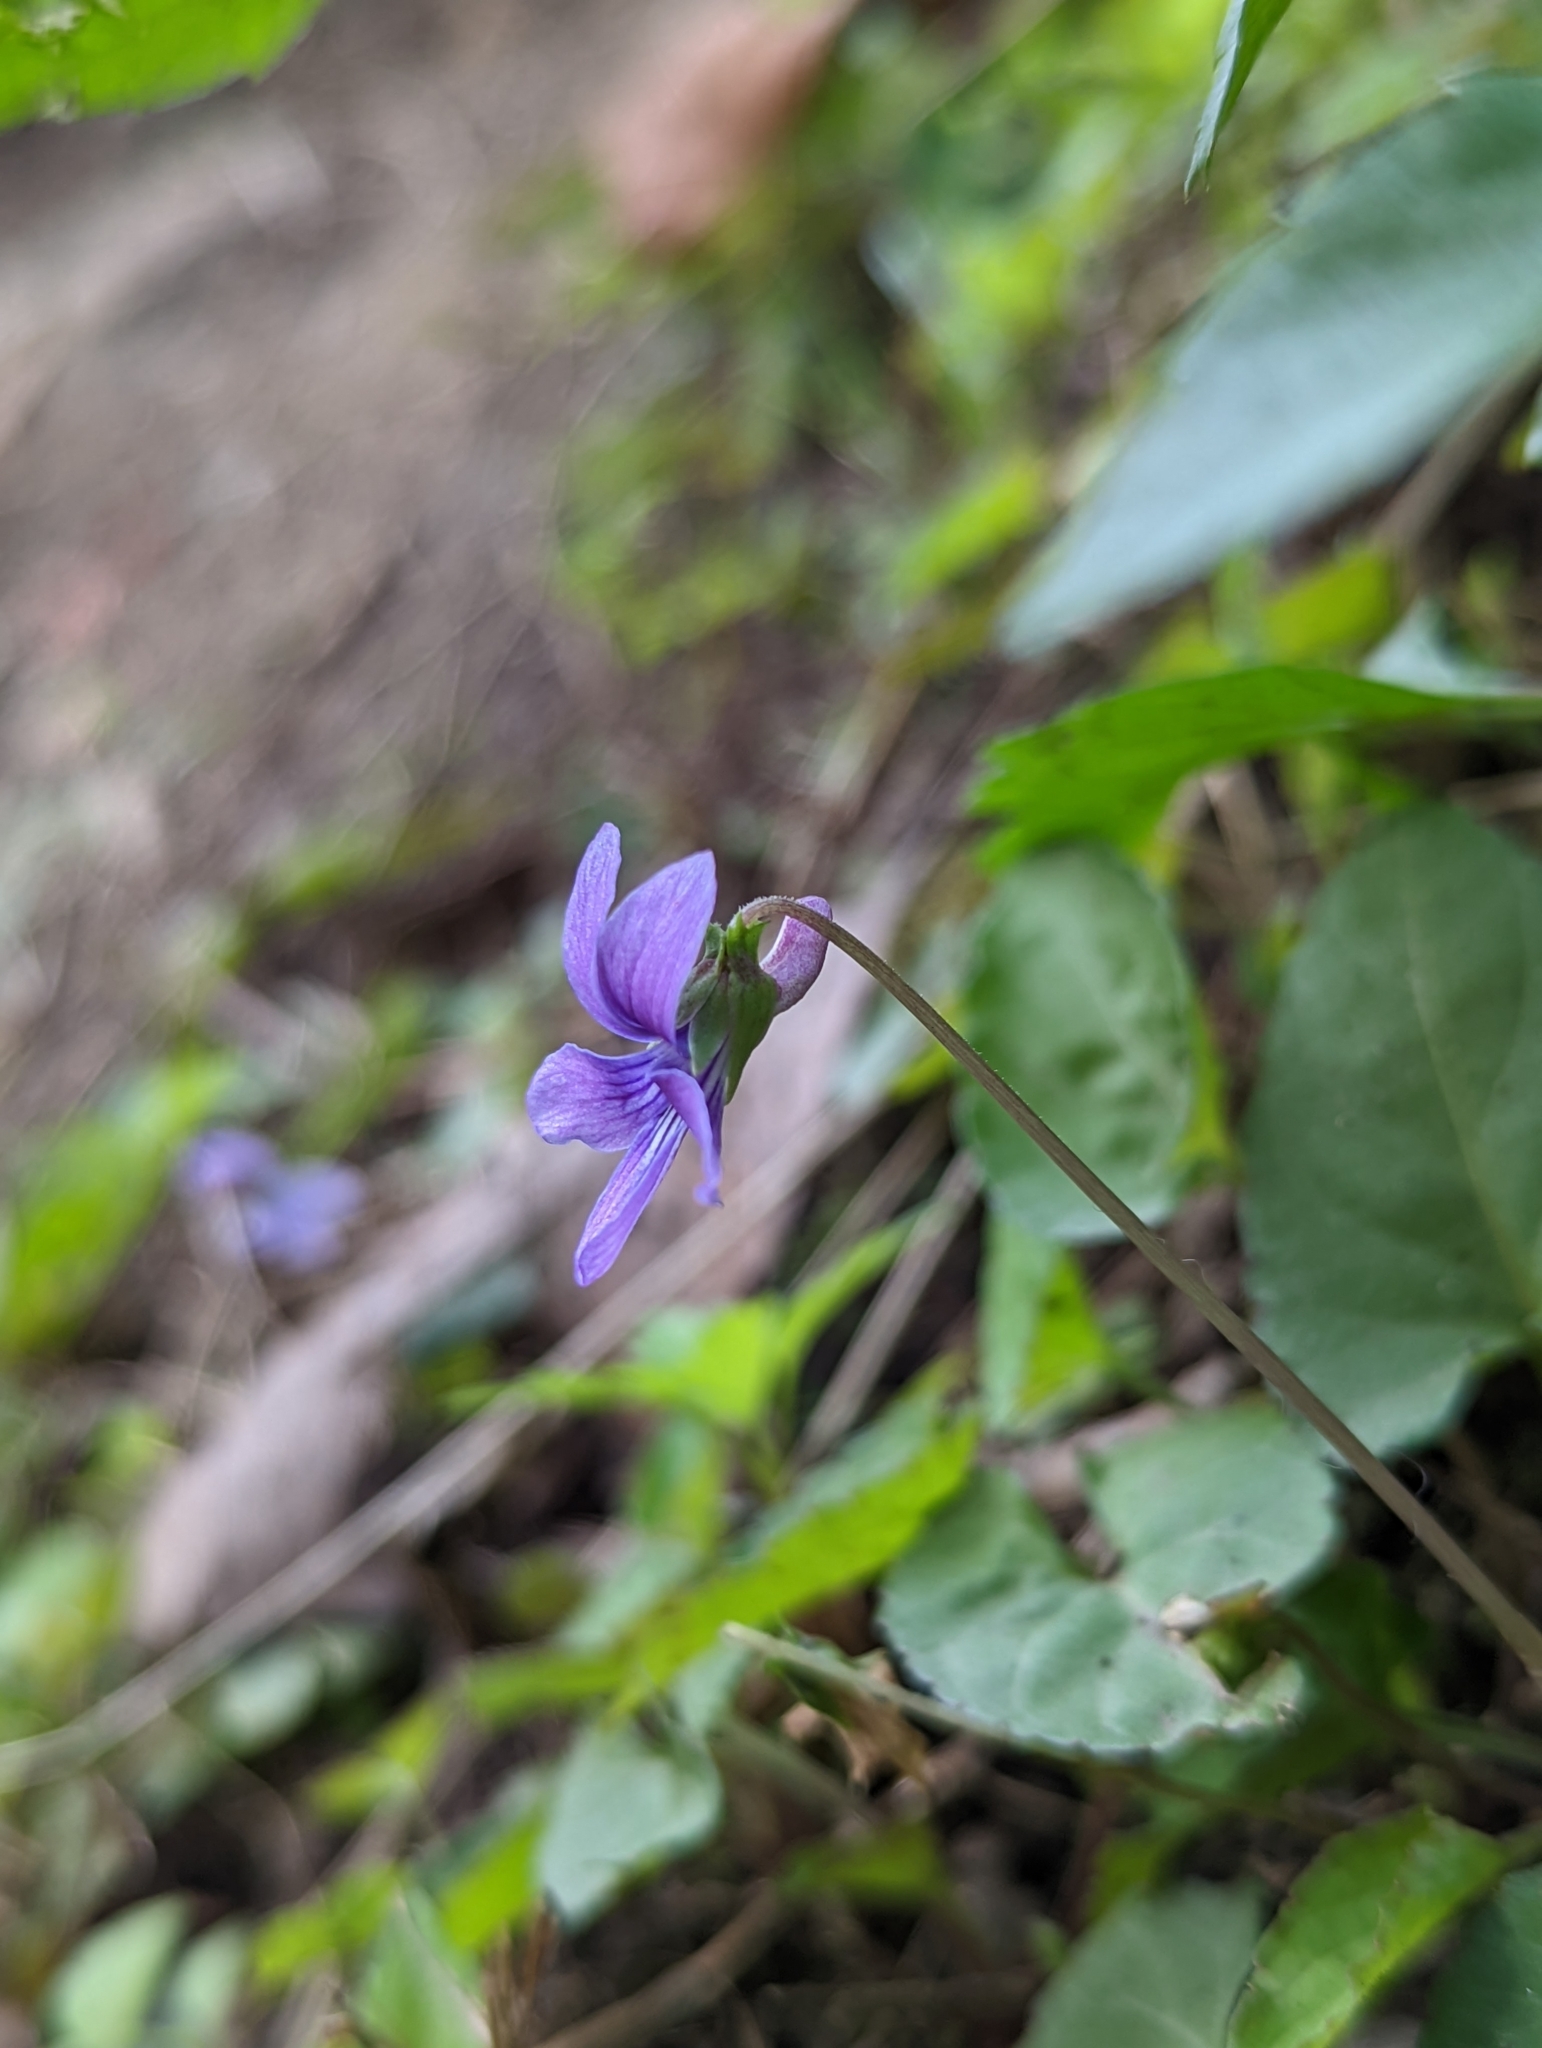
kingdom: Plantae
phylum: Tracheophyta
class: Magnoliopsida
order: Malpighiales
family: Violaceae
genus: Viola
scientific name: Viola
